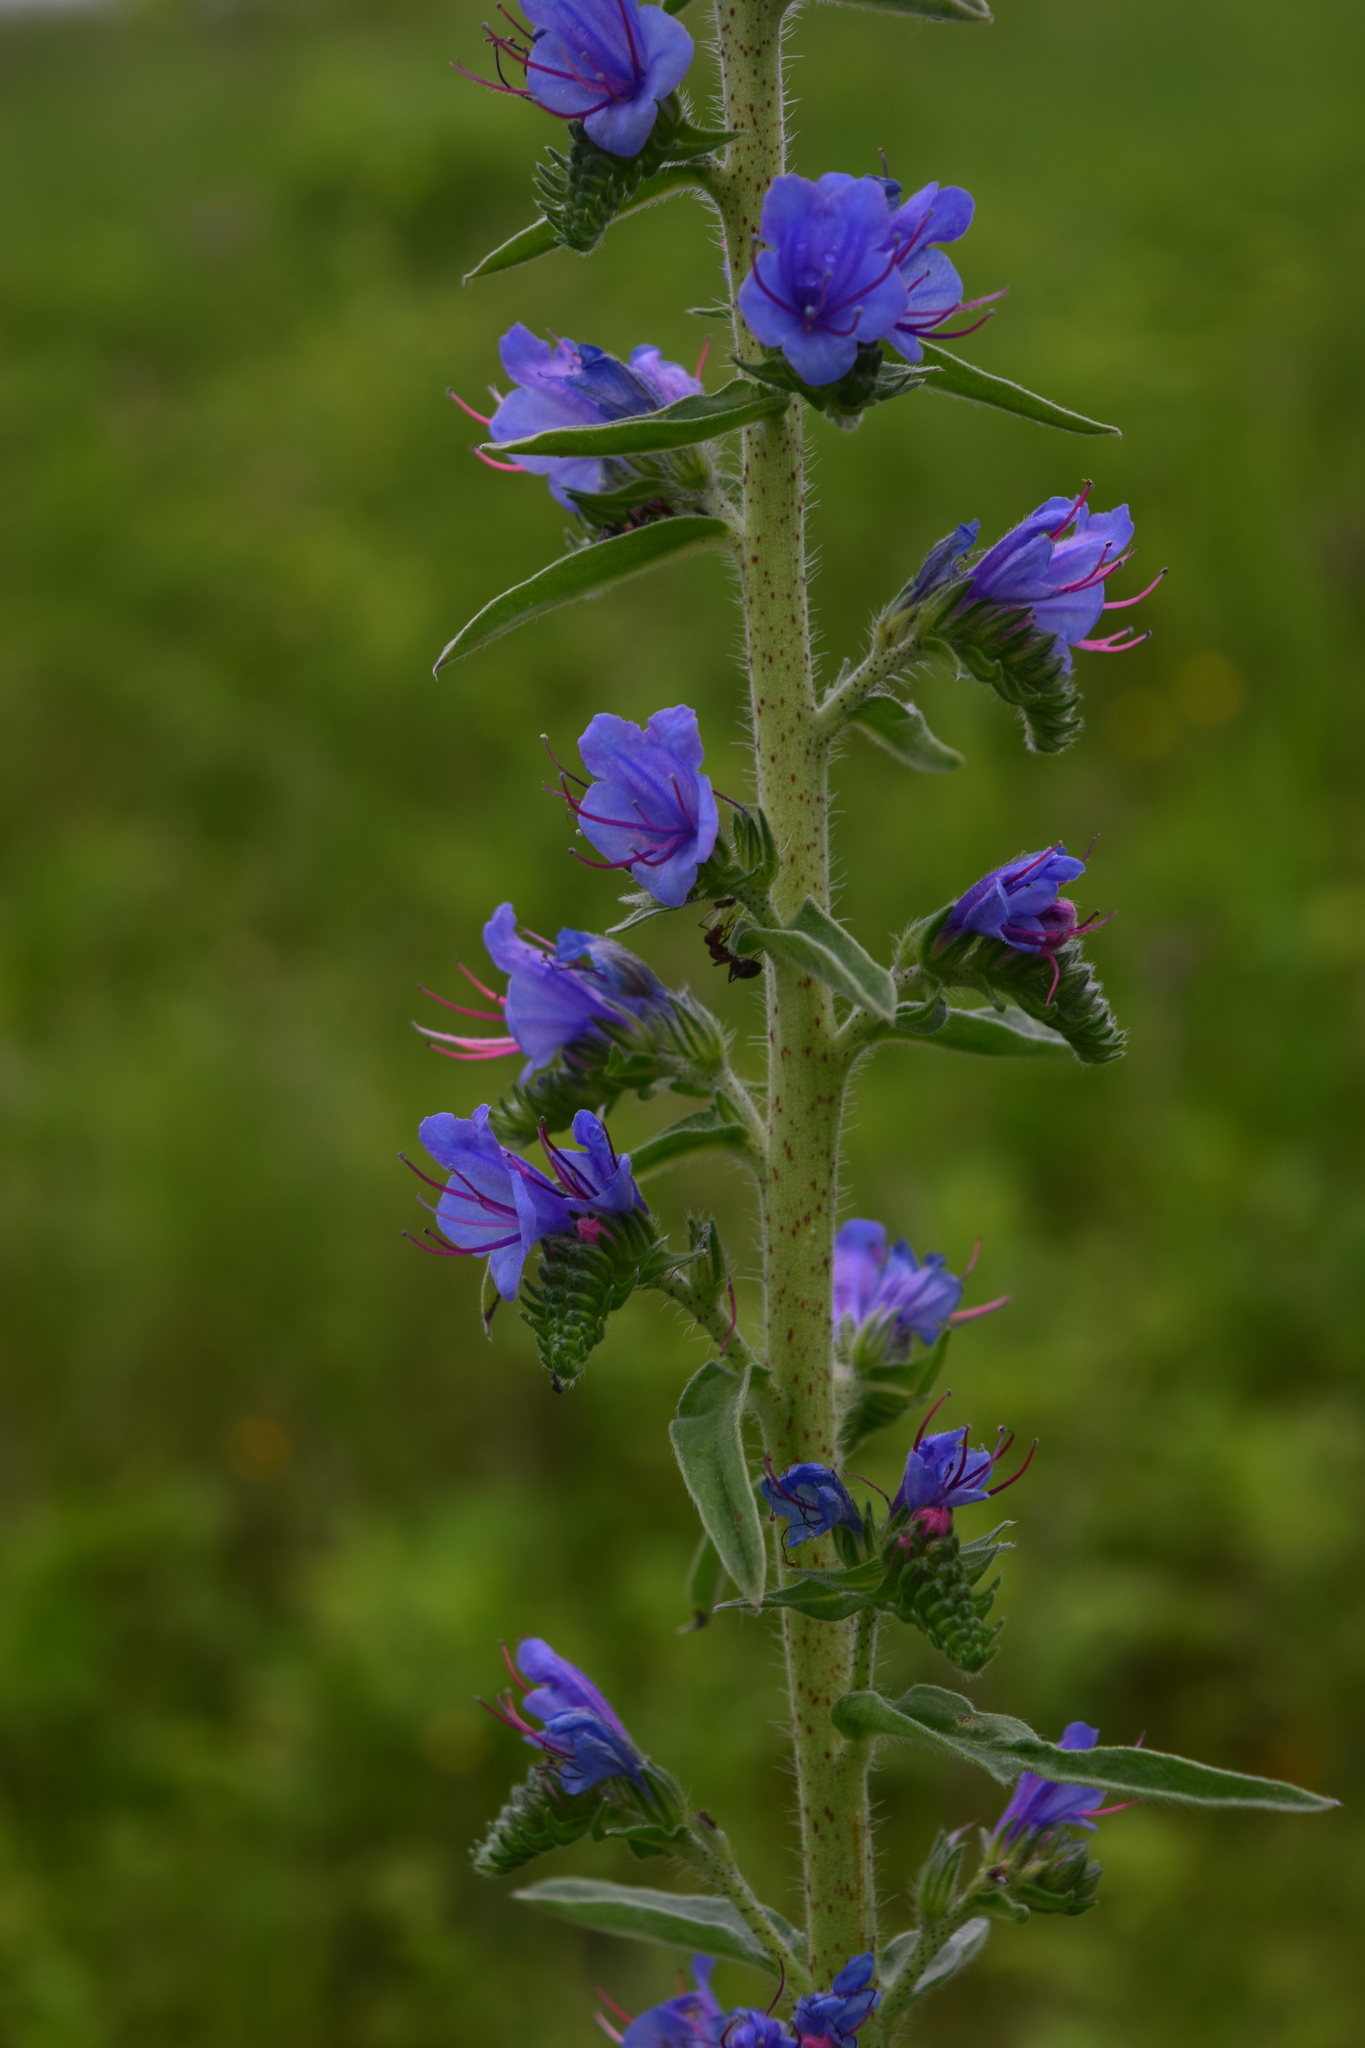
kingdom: Plantae
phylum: Tracheophyta
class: Magnoliopsida
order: Boraginales
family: Boraginaceae
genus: Echium
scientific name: Echium vulgare
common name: Common viper's bugloss
